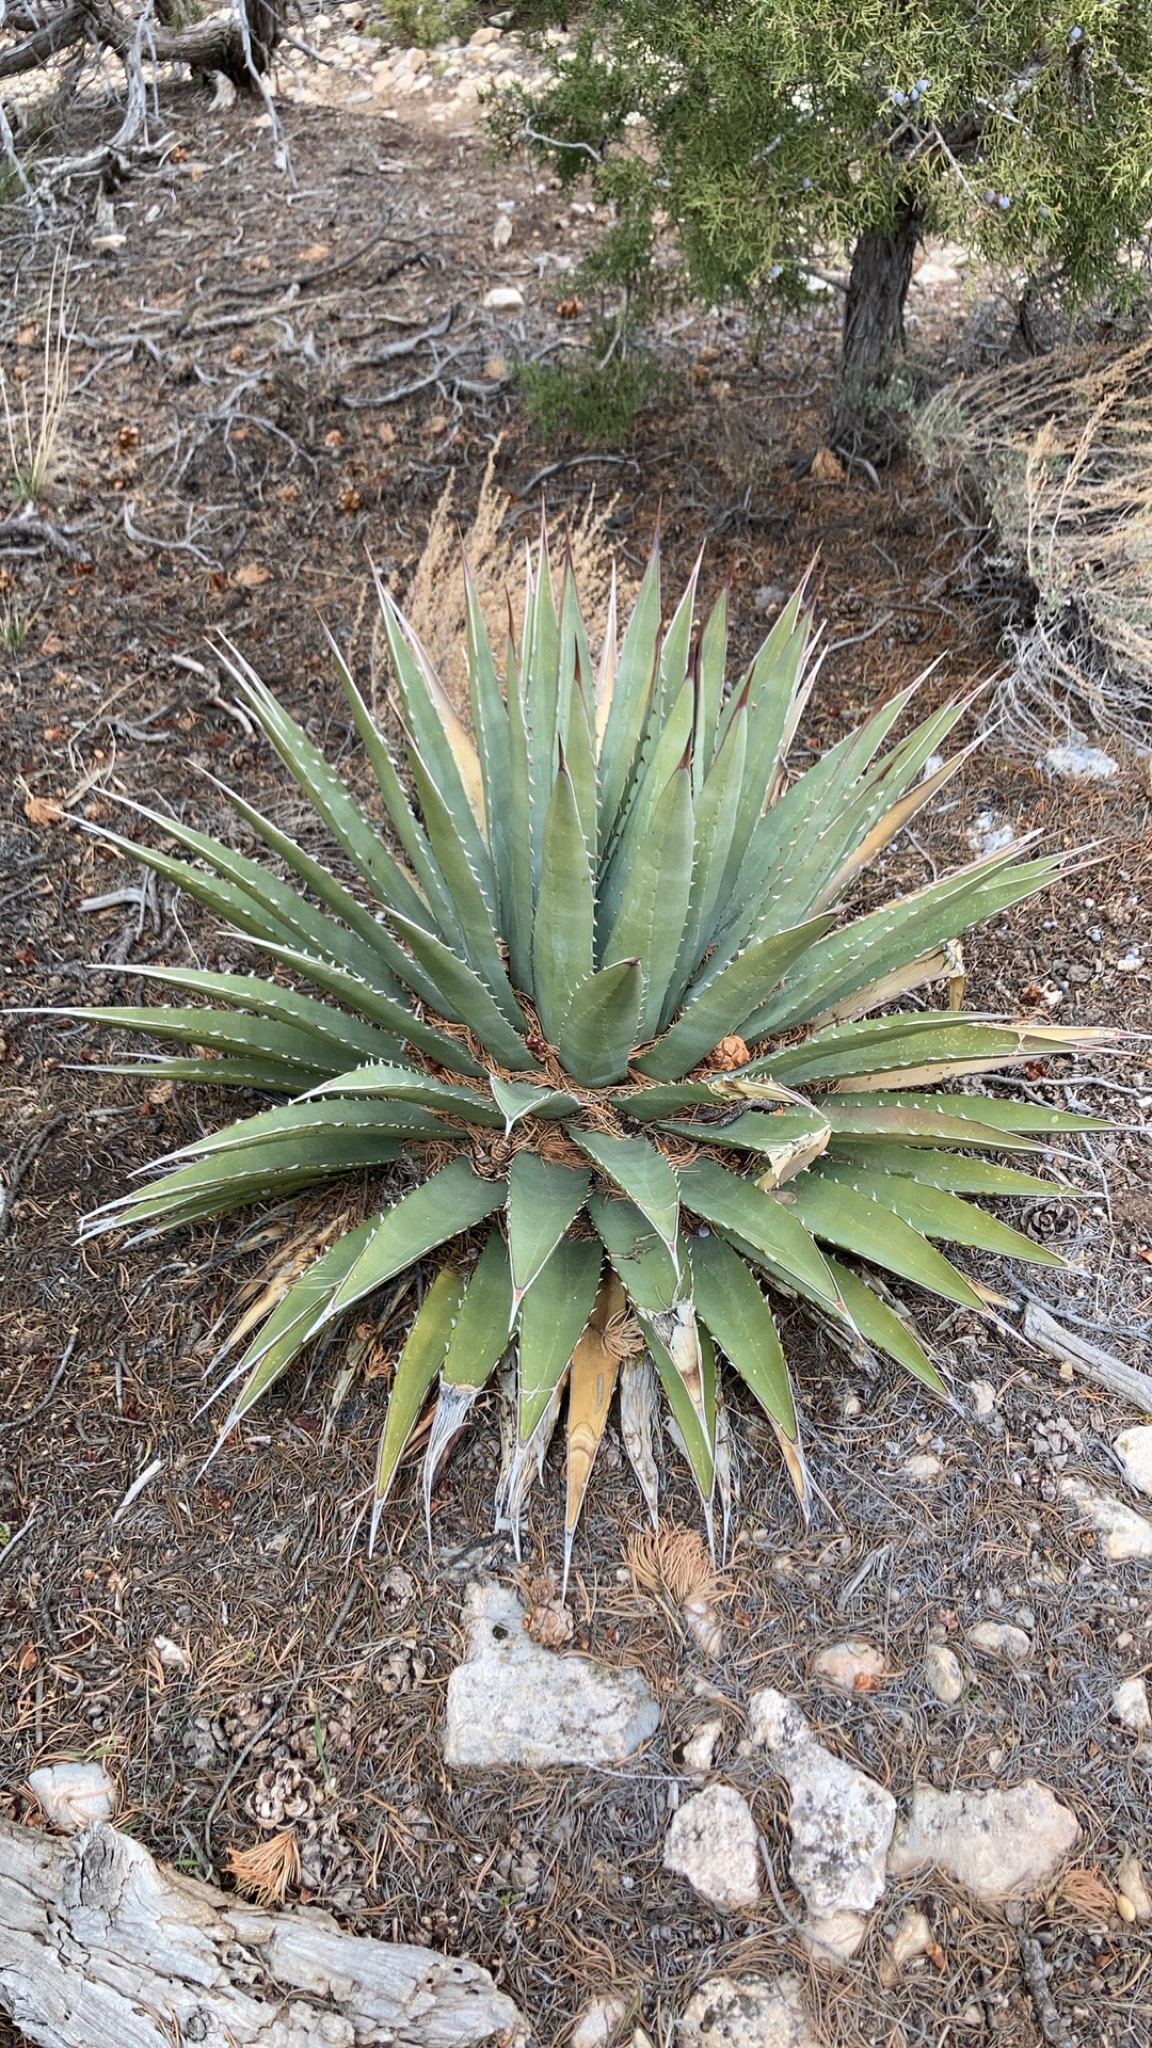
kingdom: Plantae
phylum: Tracheophyta
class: Liliopsida
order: Asparagales
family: Asparagaceae
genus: Agave
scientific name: Agave utahensis
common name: Utah agave
